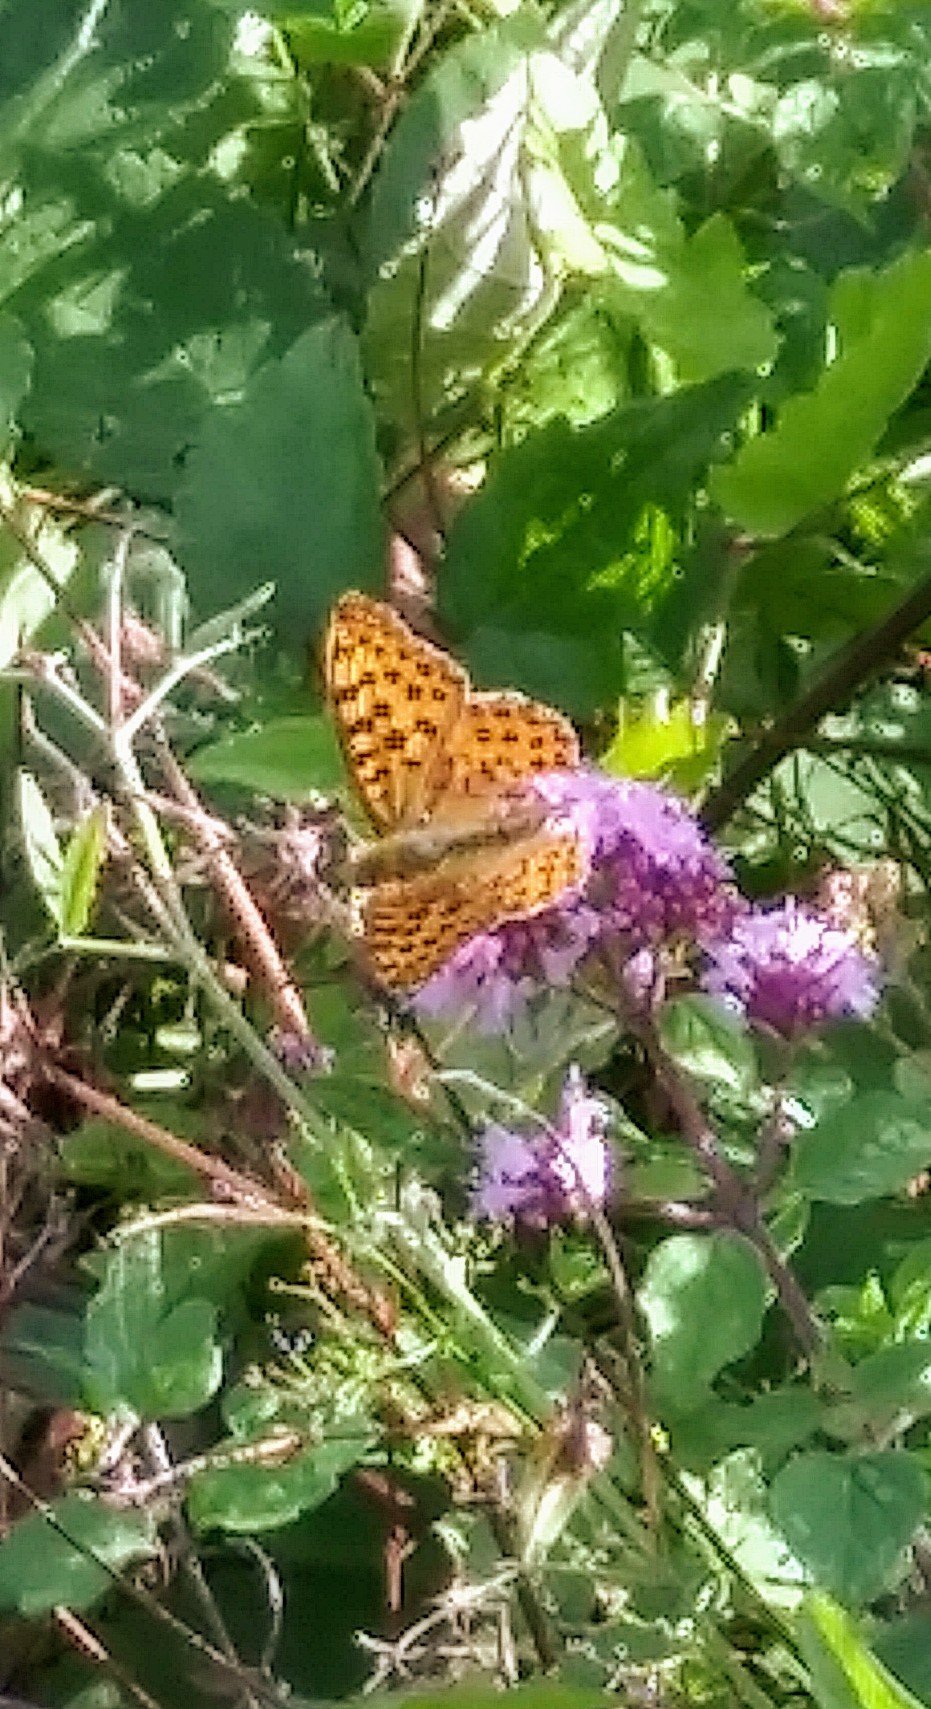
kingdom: Animalia
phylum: Arthropoda
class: Insecta
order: Lepidoptera
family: Nymphalidae
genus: Issoria
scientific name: Issoria lathonia
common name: Queen of spain fritillary
